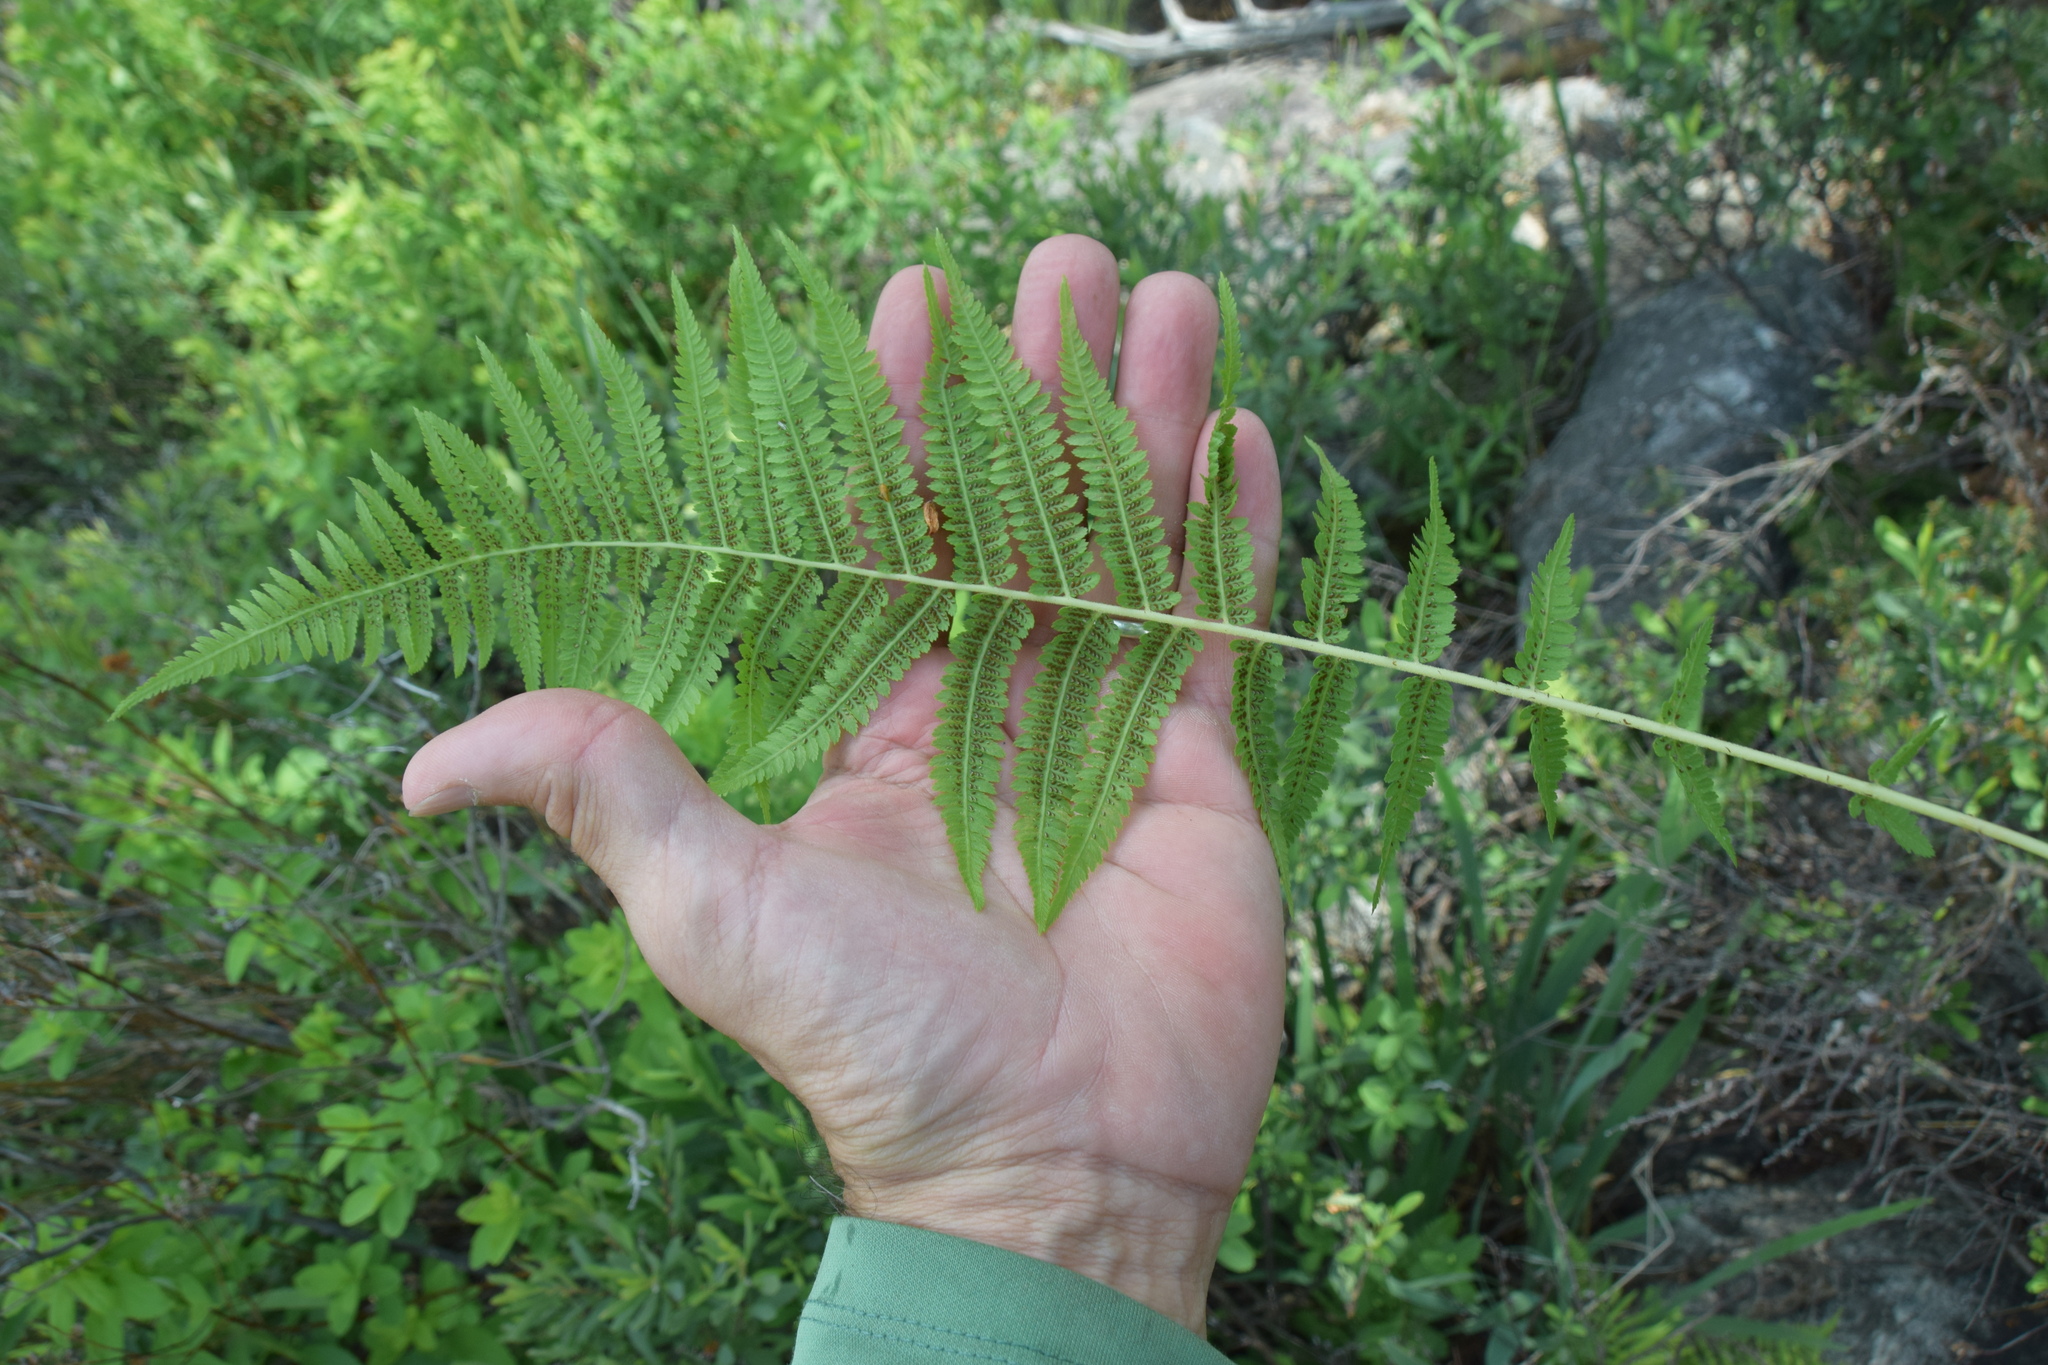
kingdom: Plantae
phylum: Tracheophyta
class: Polypodiopsida
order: Polypodiales
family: Athyriaceae
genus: Athyrium
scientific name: Athyrium angustum
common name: Northern lady fern
